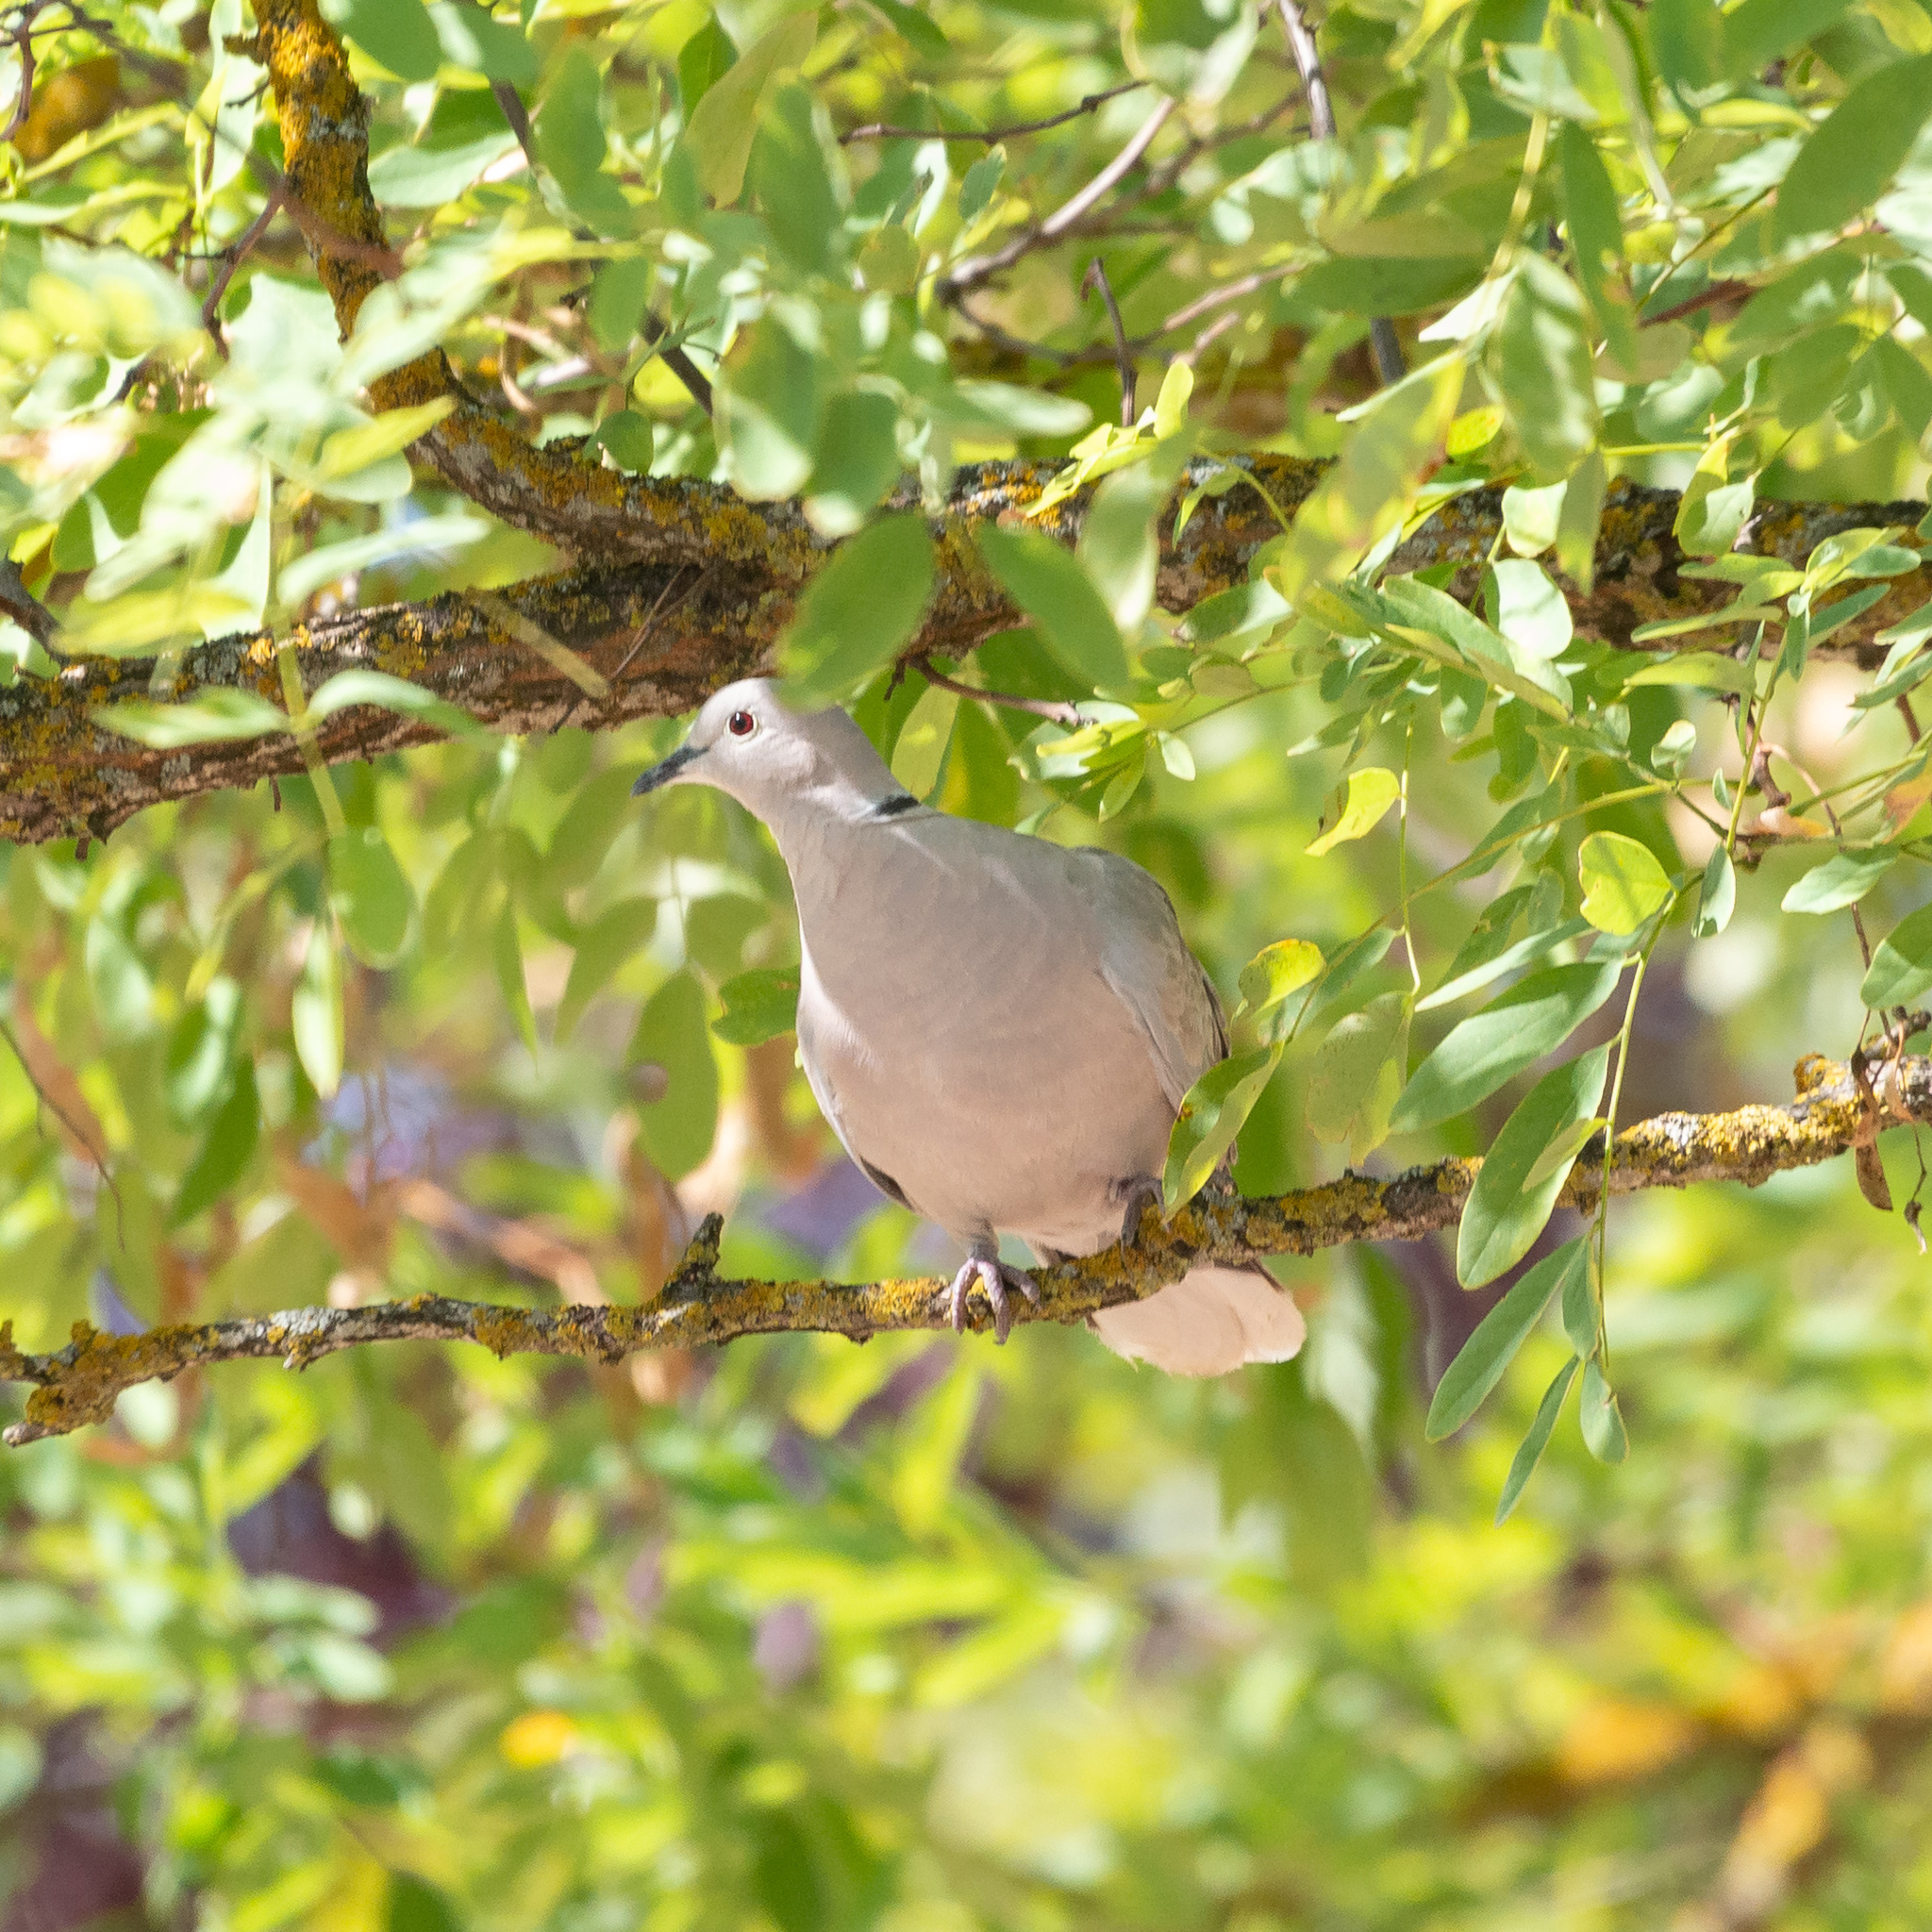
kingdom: Animalia
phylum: Chordata
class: Aves
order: Columbiformes
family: Columbidae
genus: Streptopelia
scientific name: Streptopelia decaocto
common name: Eurasian collared dove
